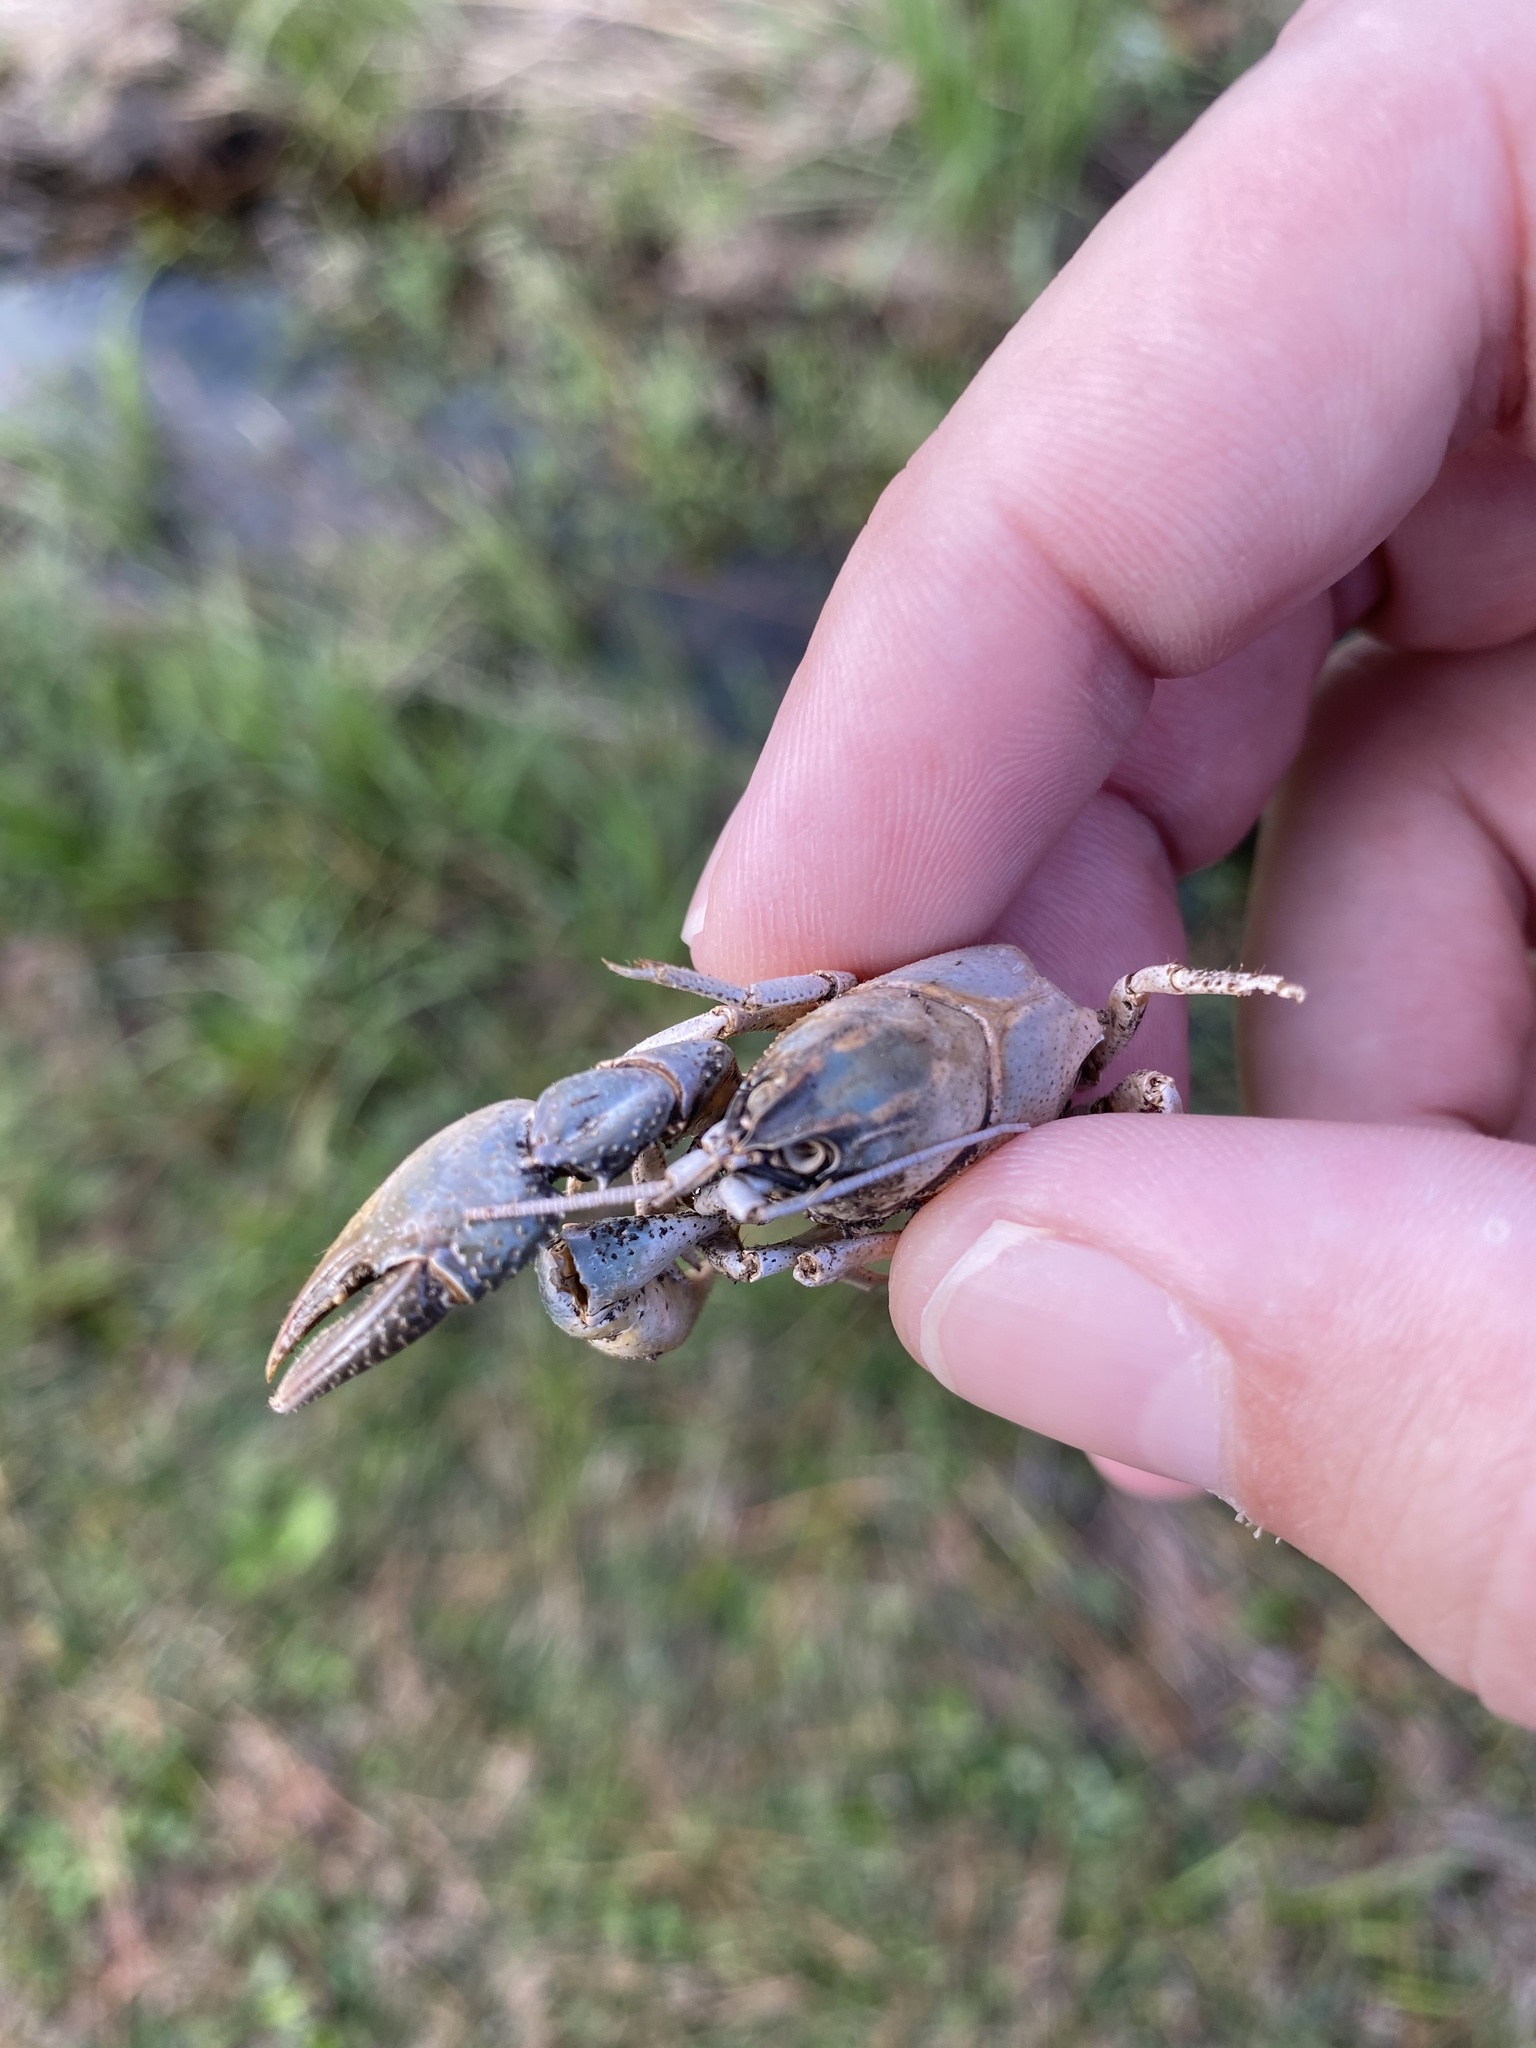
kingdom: Animalia
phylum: Arthropoda
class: Malacostraca
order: Decapoda
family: Cambaridae
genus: Lacunicambarus
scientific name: Lacunicambarus ludovicianus
